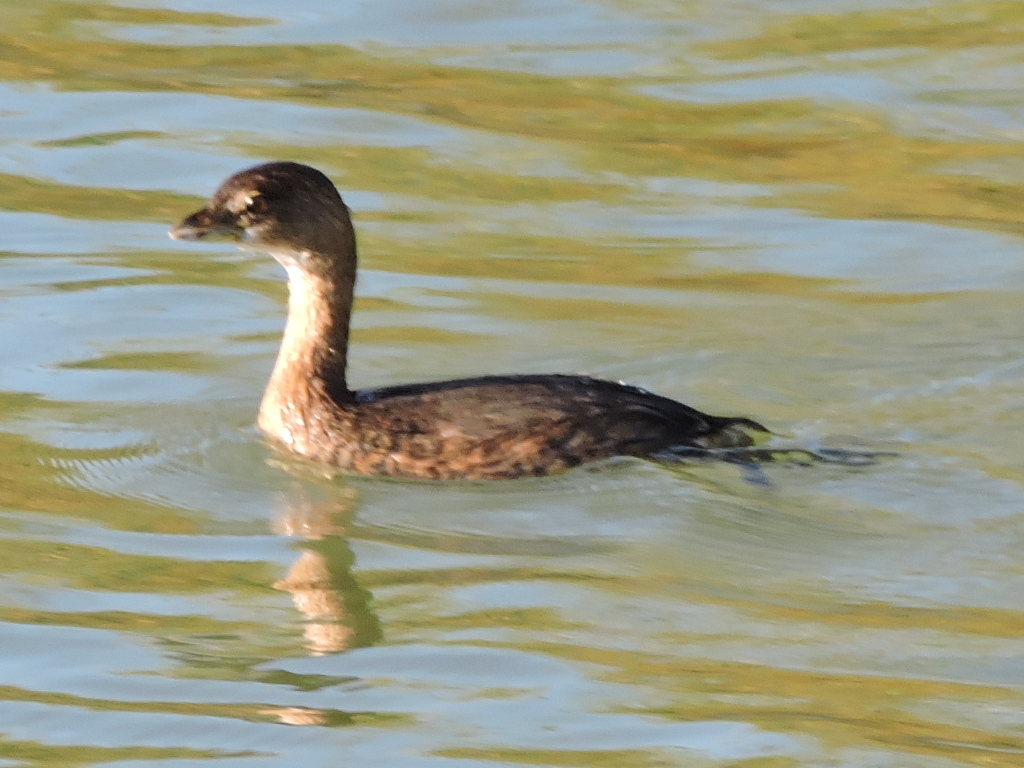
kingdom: Animalia
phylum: Chordata
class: Aves
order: Podicipediformes
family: Podicipedidae
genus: Podilymbus
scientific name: Podilymbus podiceps
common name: Pied-billed grebe
